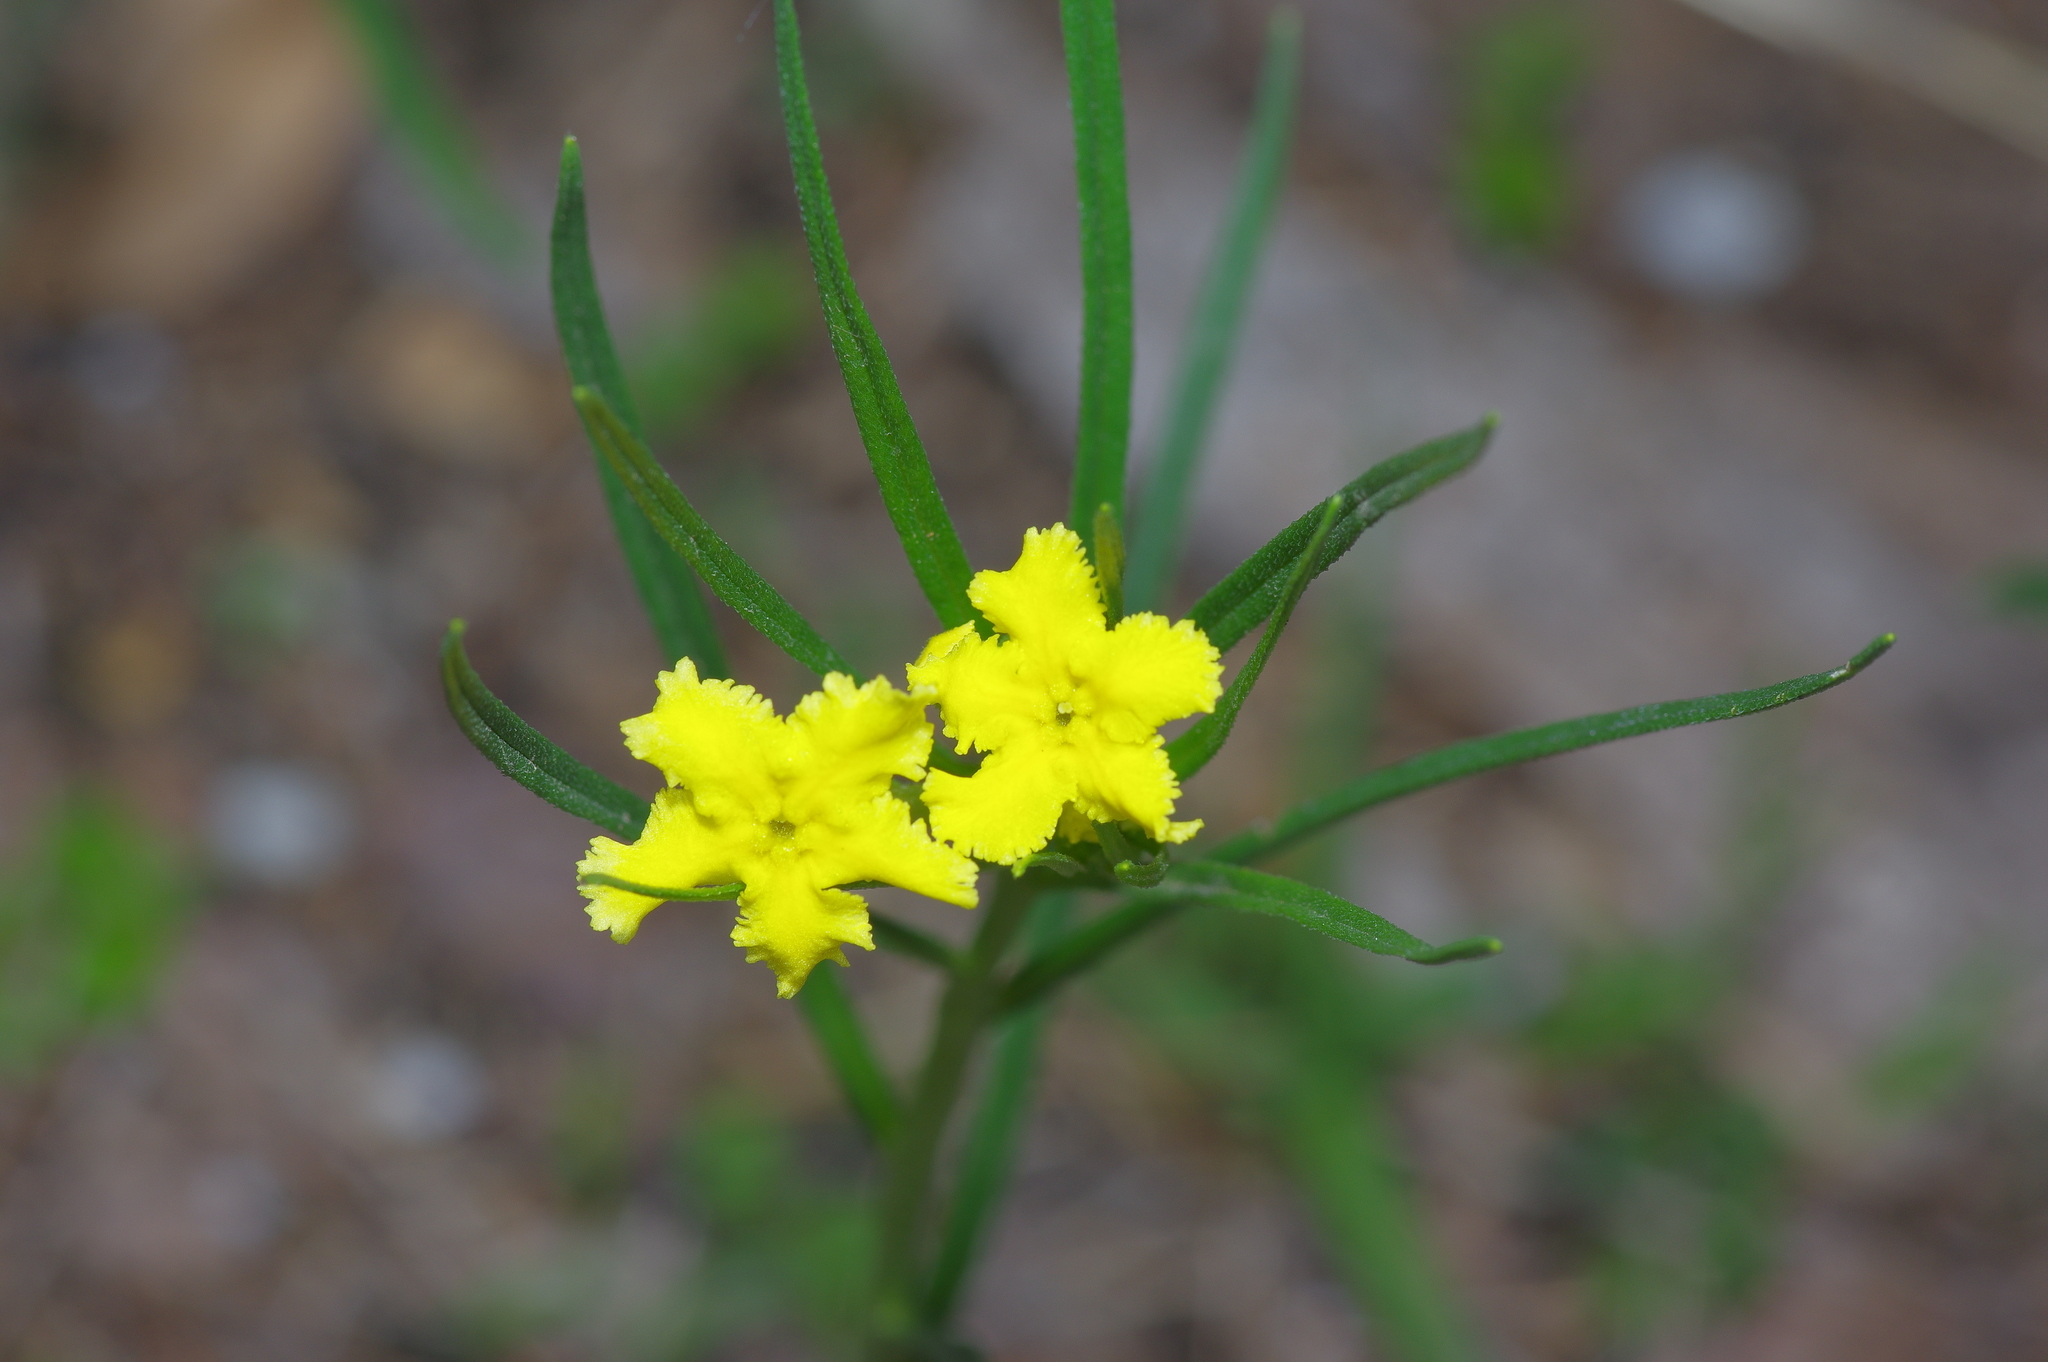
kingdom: Plantae
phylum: Tracheophyta
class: Magnoliopsida
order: Boraginales
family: Boraginaceae
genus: Lithospermum
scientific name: Lithospermum incisum
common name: Fringed gromwell
